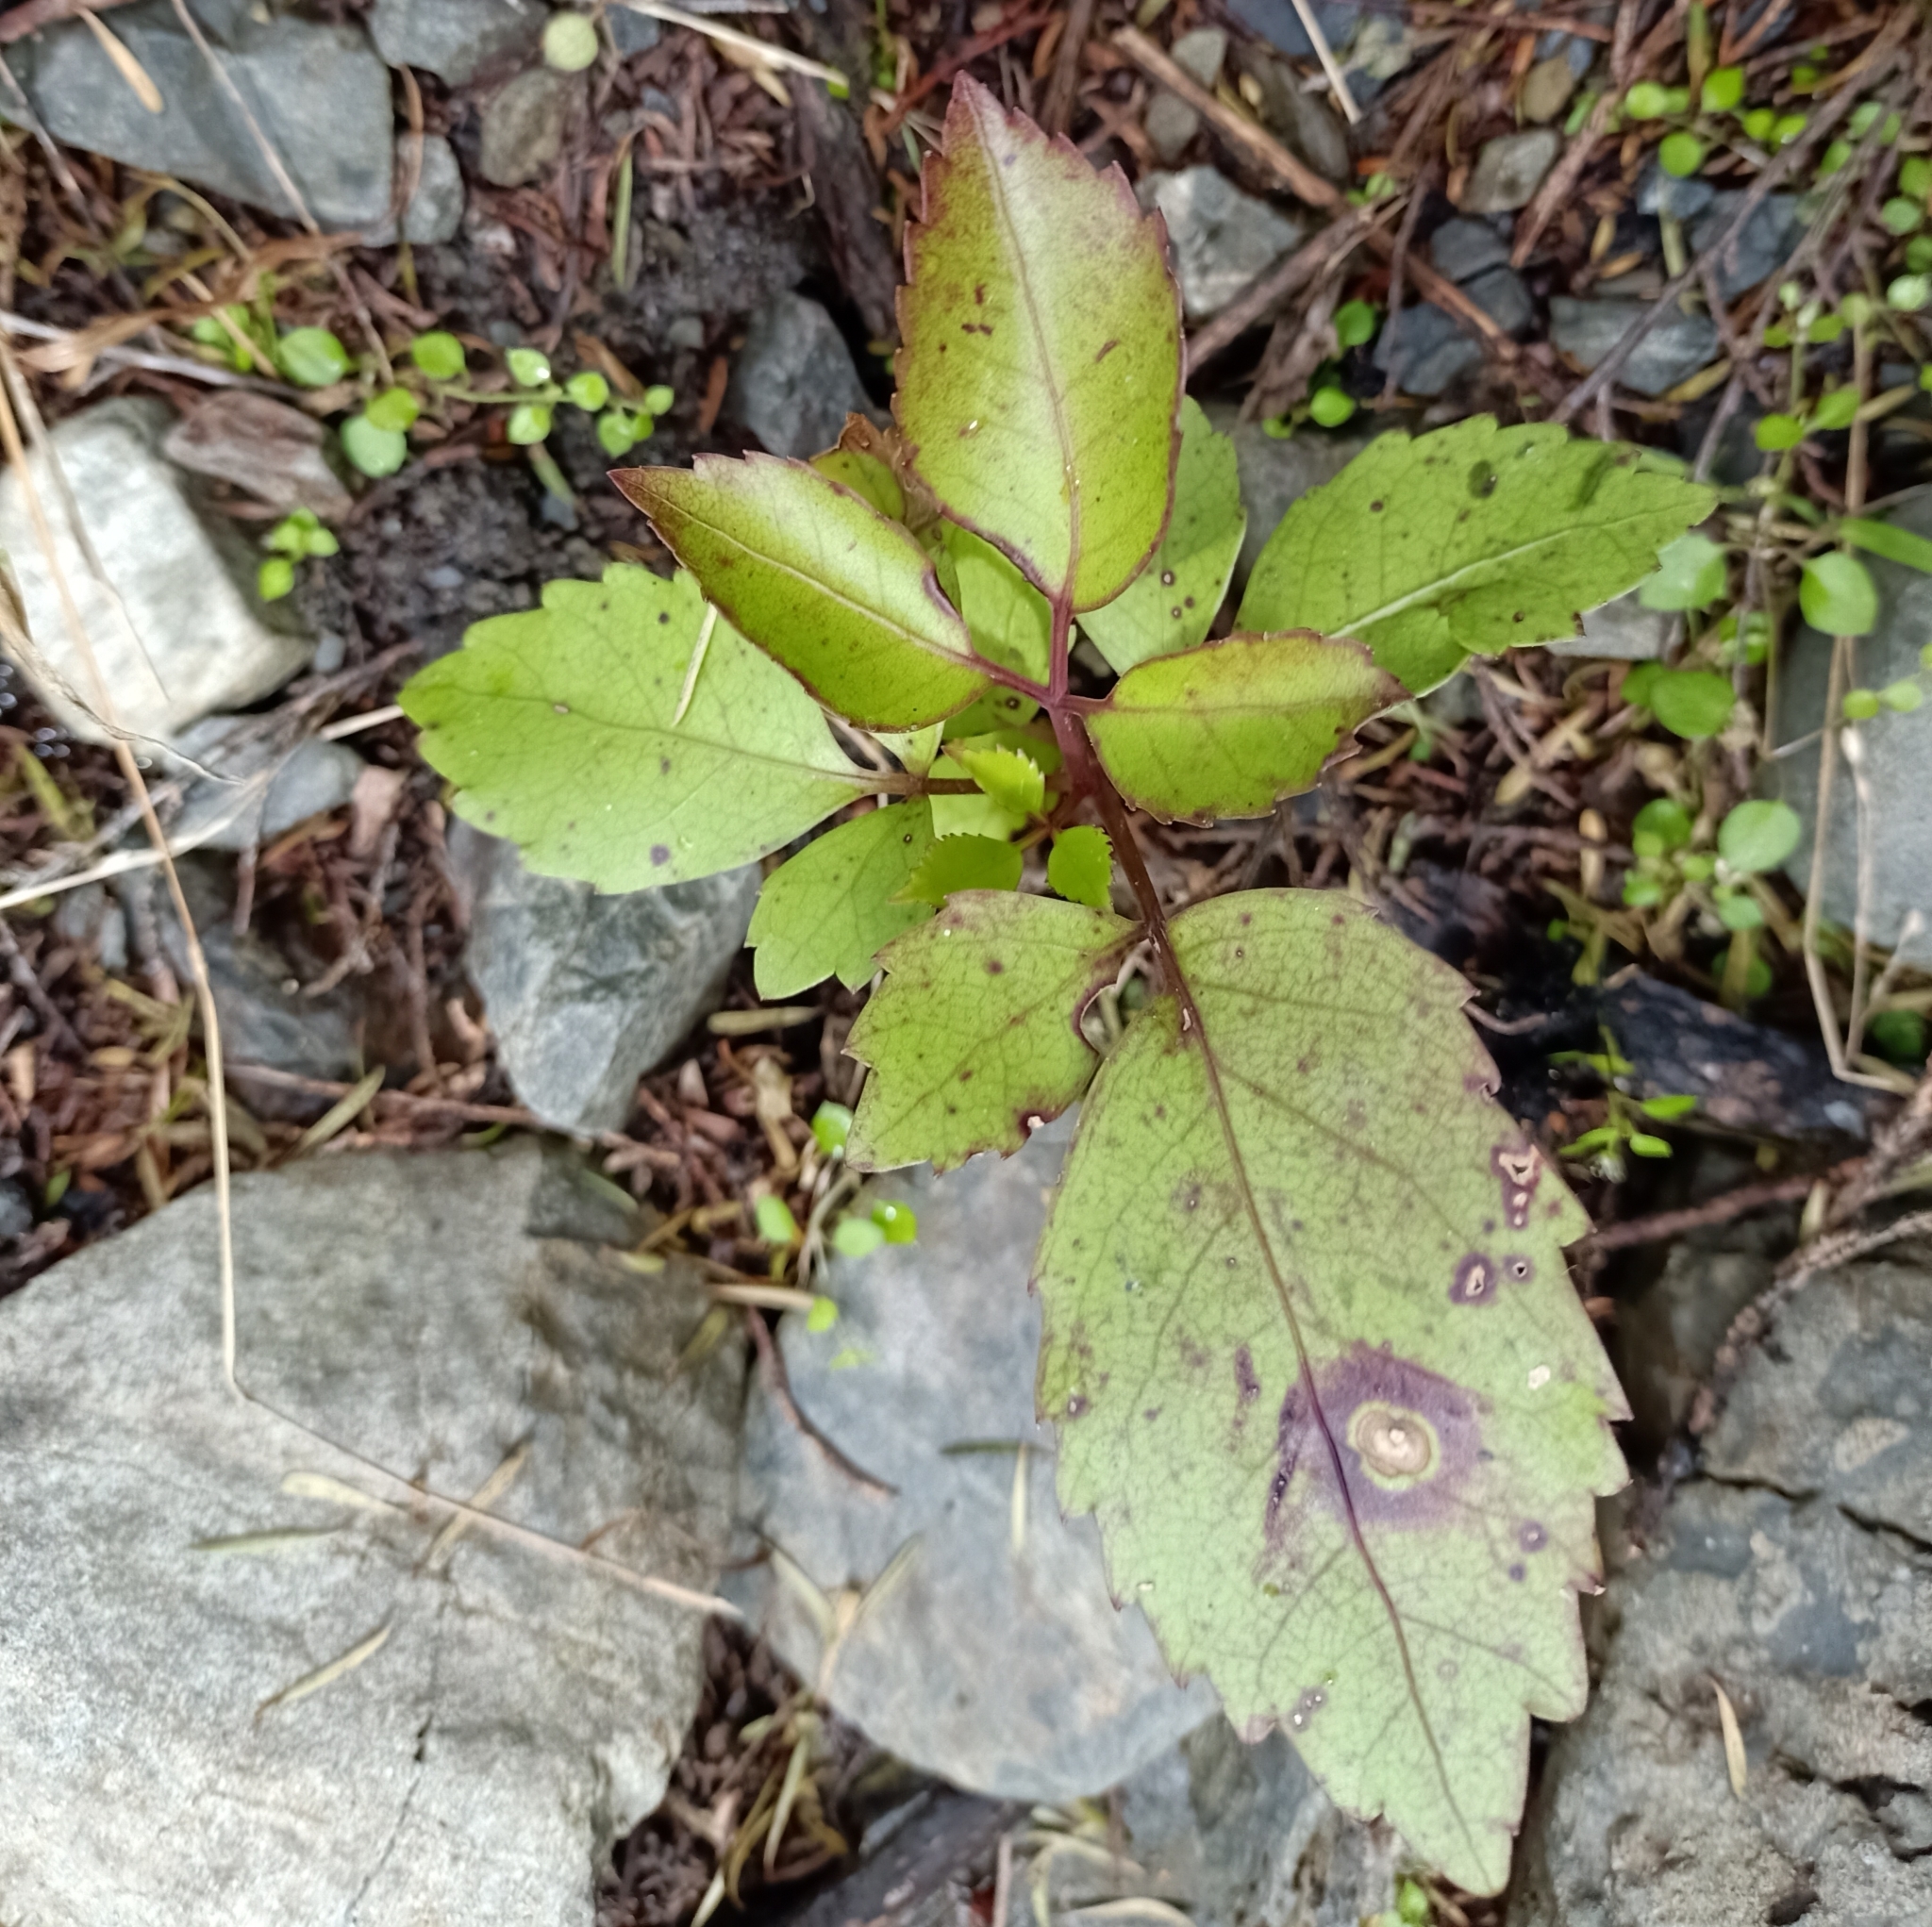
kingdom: Plantae
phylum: Tracheophyta
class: Magnoliopsida
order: Apiales
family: Araliaceae
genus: Neopanax
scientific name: Neopanax arboreus
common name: Five-fingers
